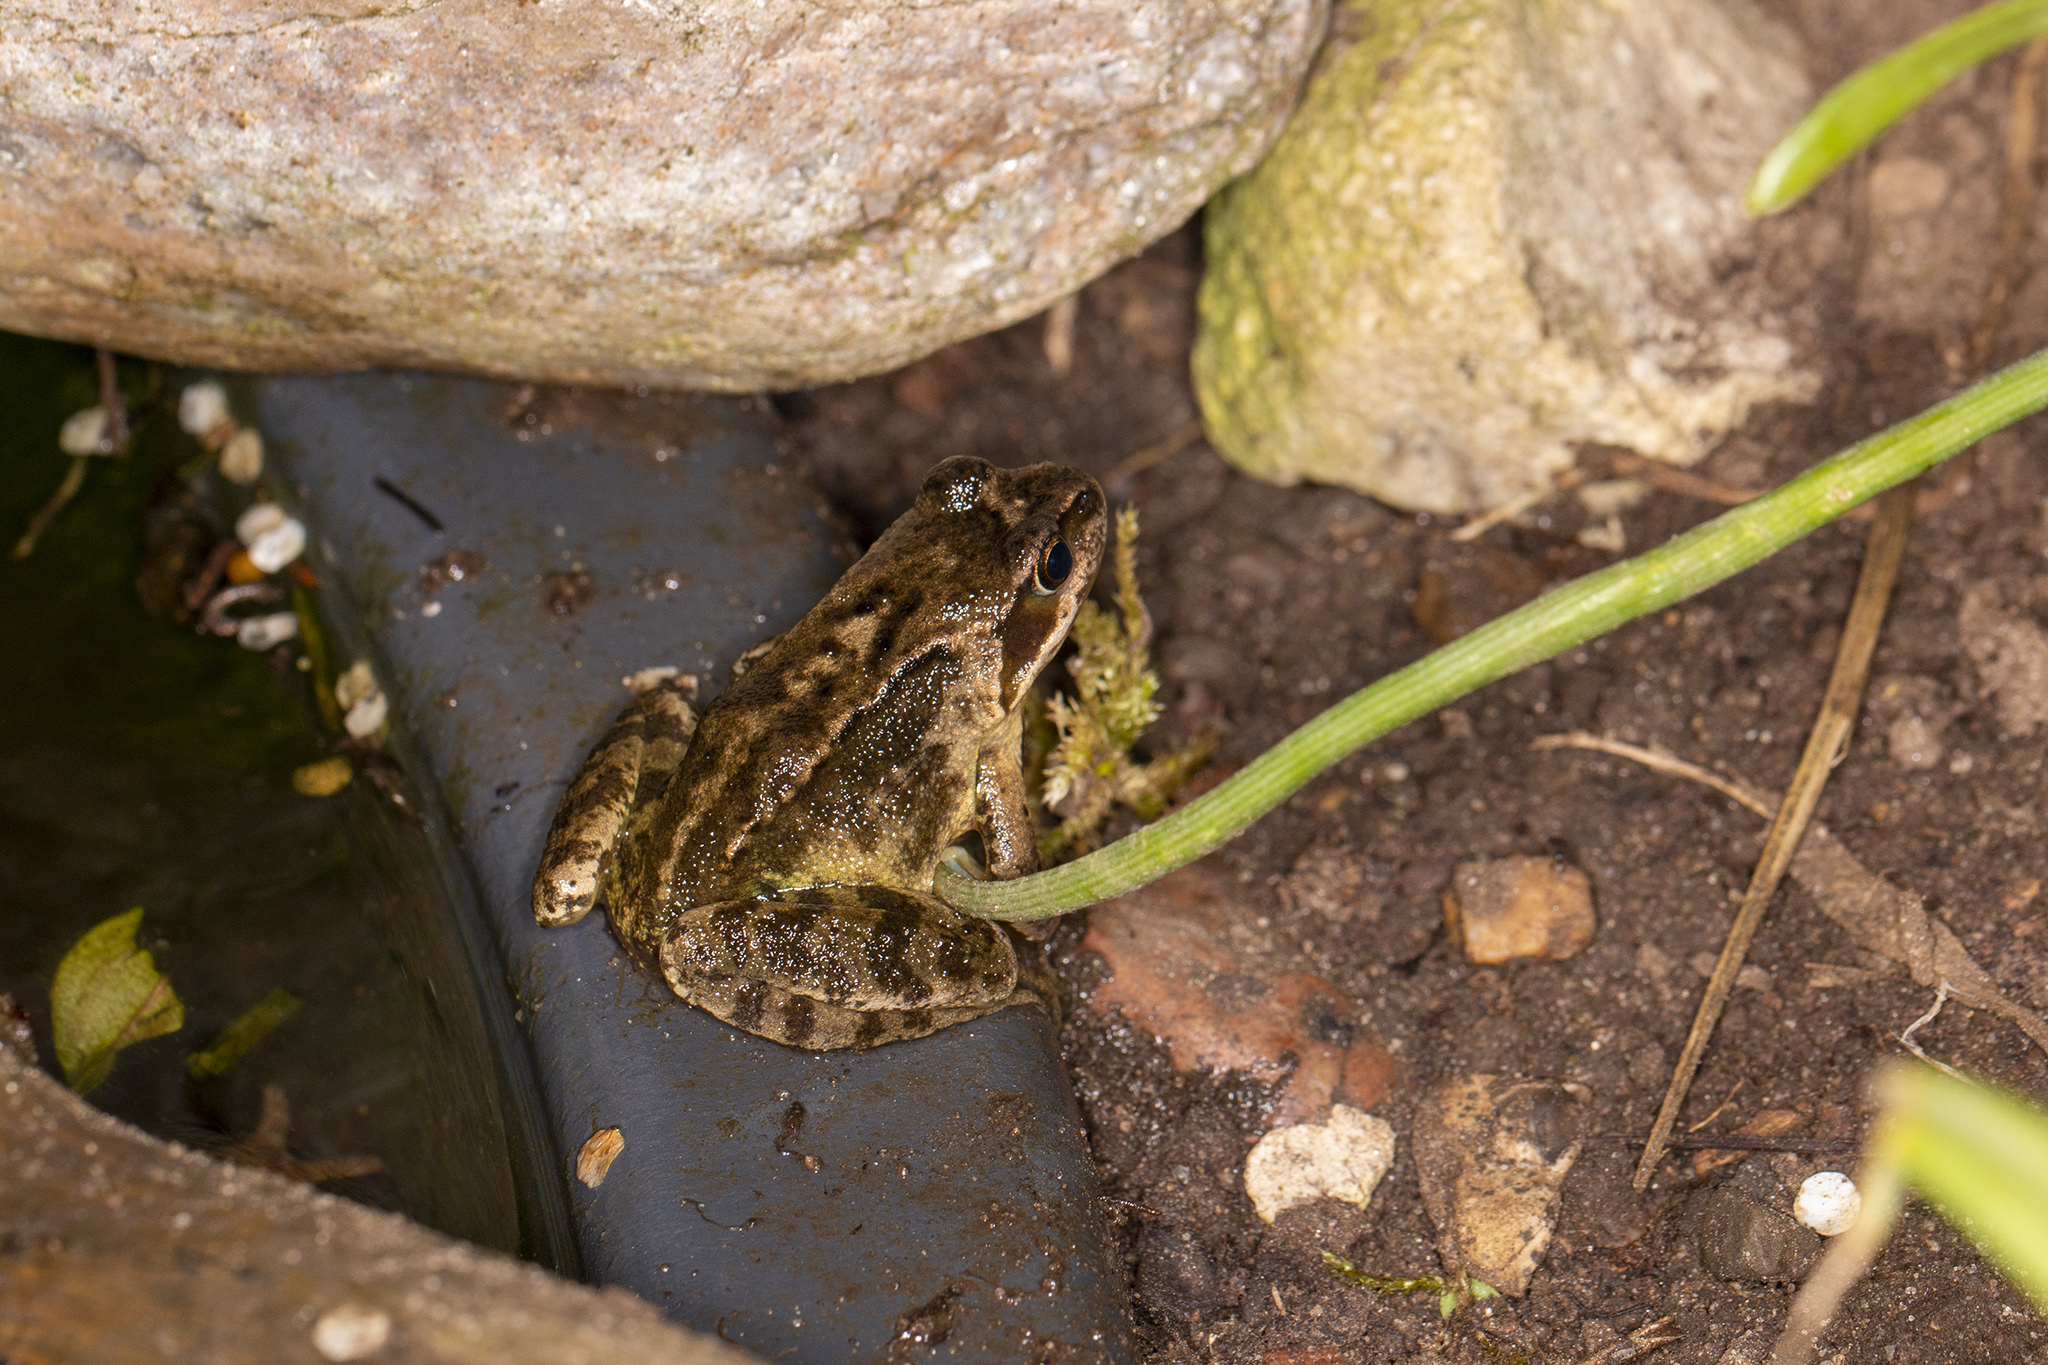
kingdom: Animalia
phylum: Chordata
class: Amphibia
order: Anura
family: Ranidae
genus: Rana
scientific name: Rana temporaria
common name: Common frog
